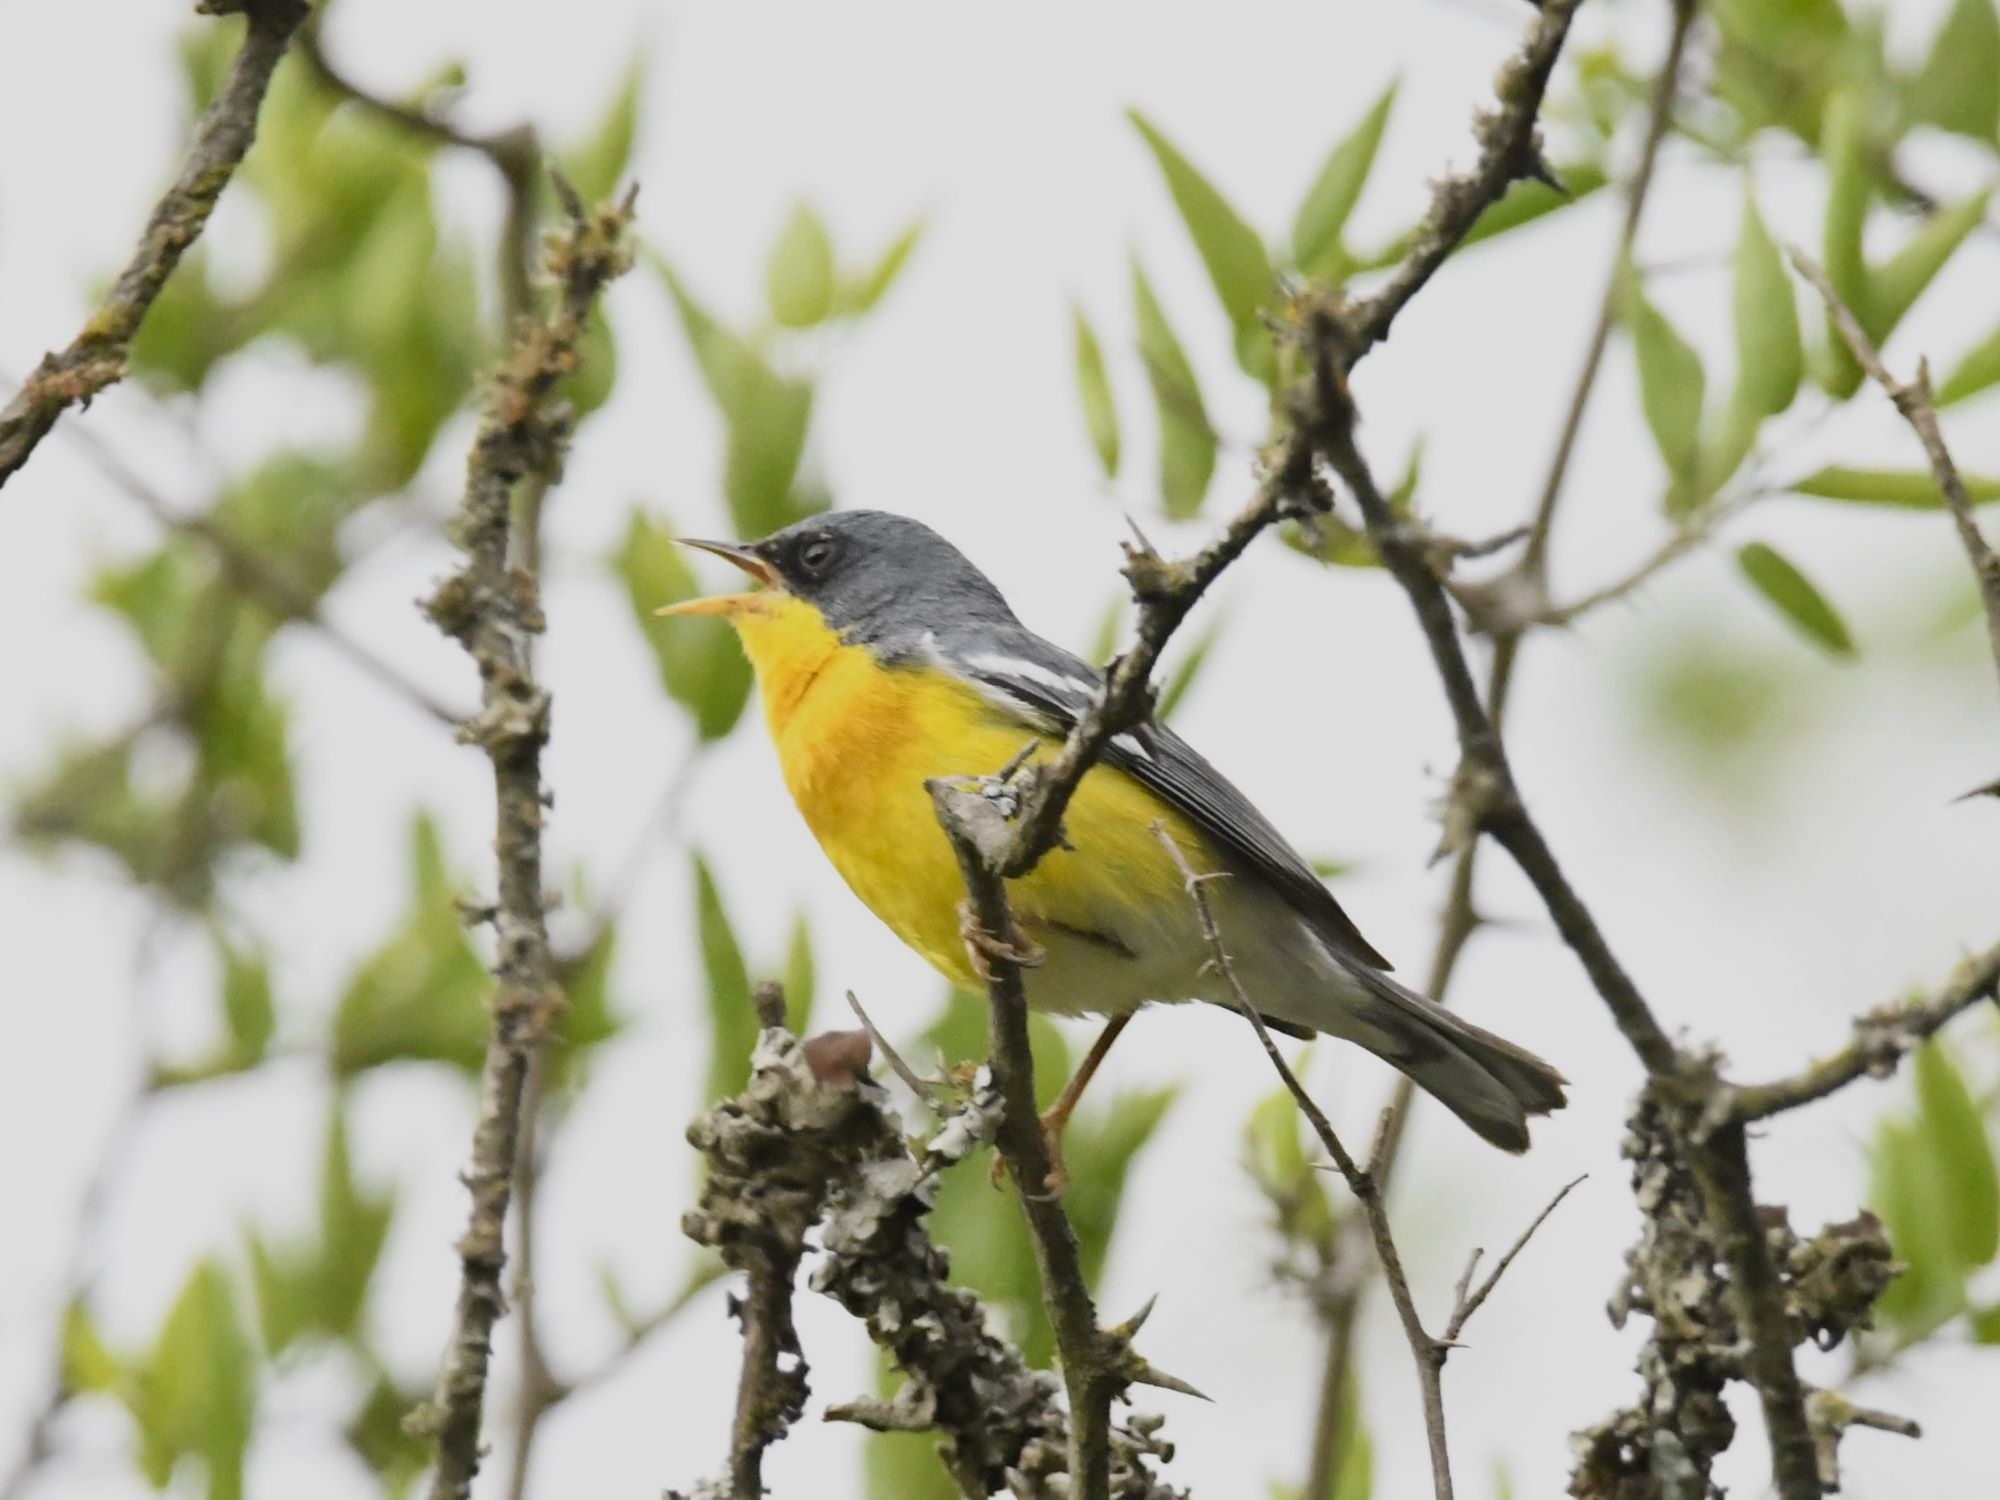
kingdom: Animalia
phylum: Chordata
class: Aves
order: Passeriformes
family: Parulidae
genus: Setophaga
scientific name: Setophaga pitiayumi
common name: Tropical parula
